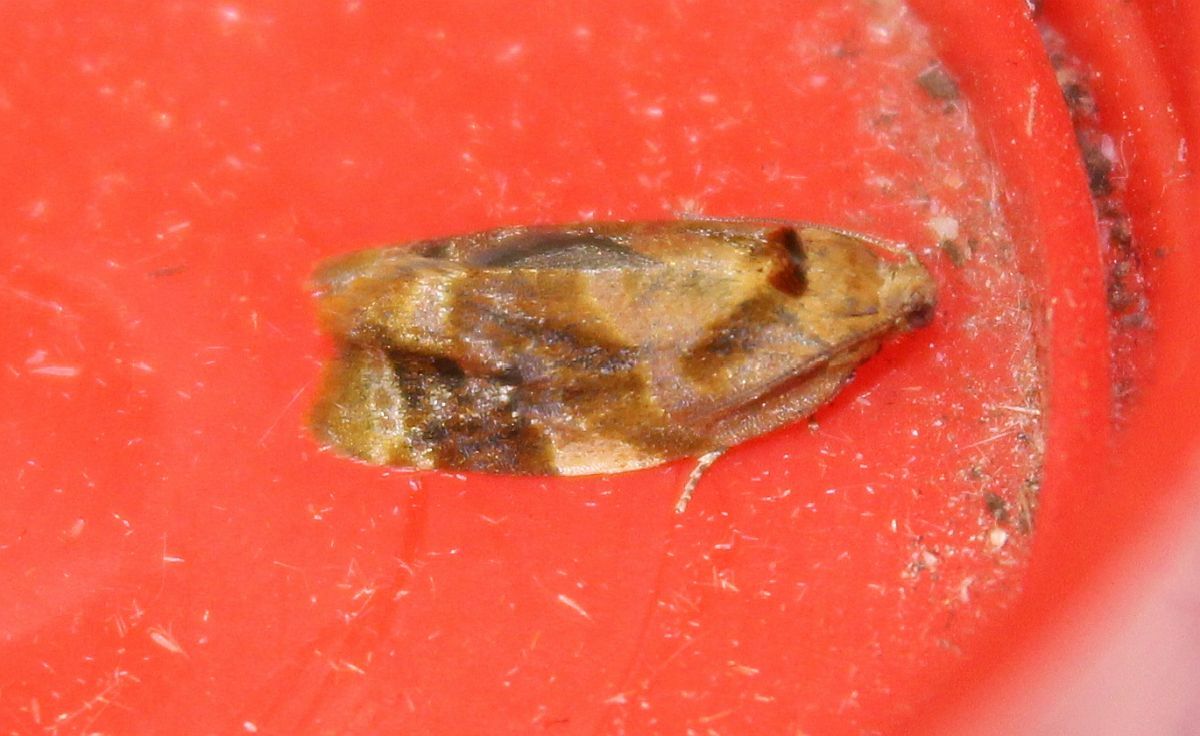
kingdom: Animalia
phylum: Arthropoda
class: Insecta
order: Lepidoptera
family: Tortricidae
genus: Ditula
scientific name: Ditula angustiorana
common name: Red-barred tortrix
